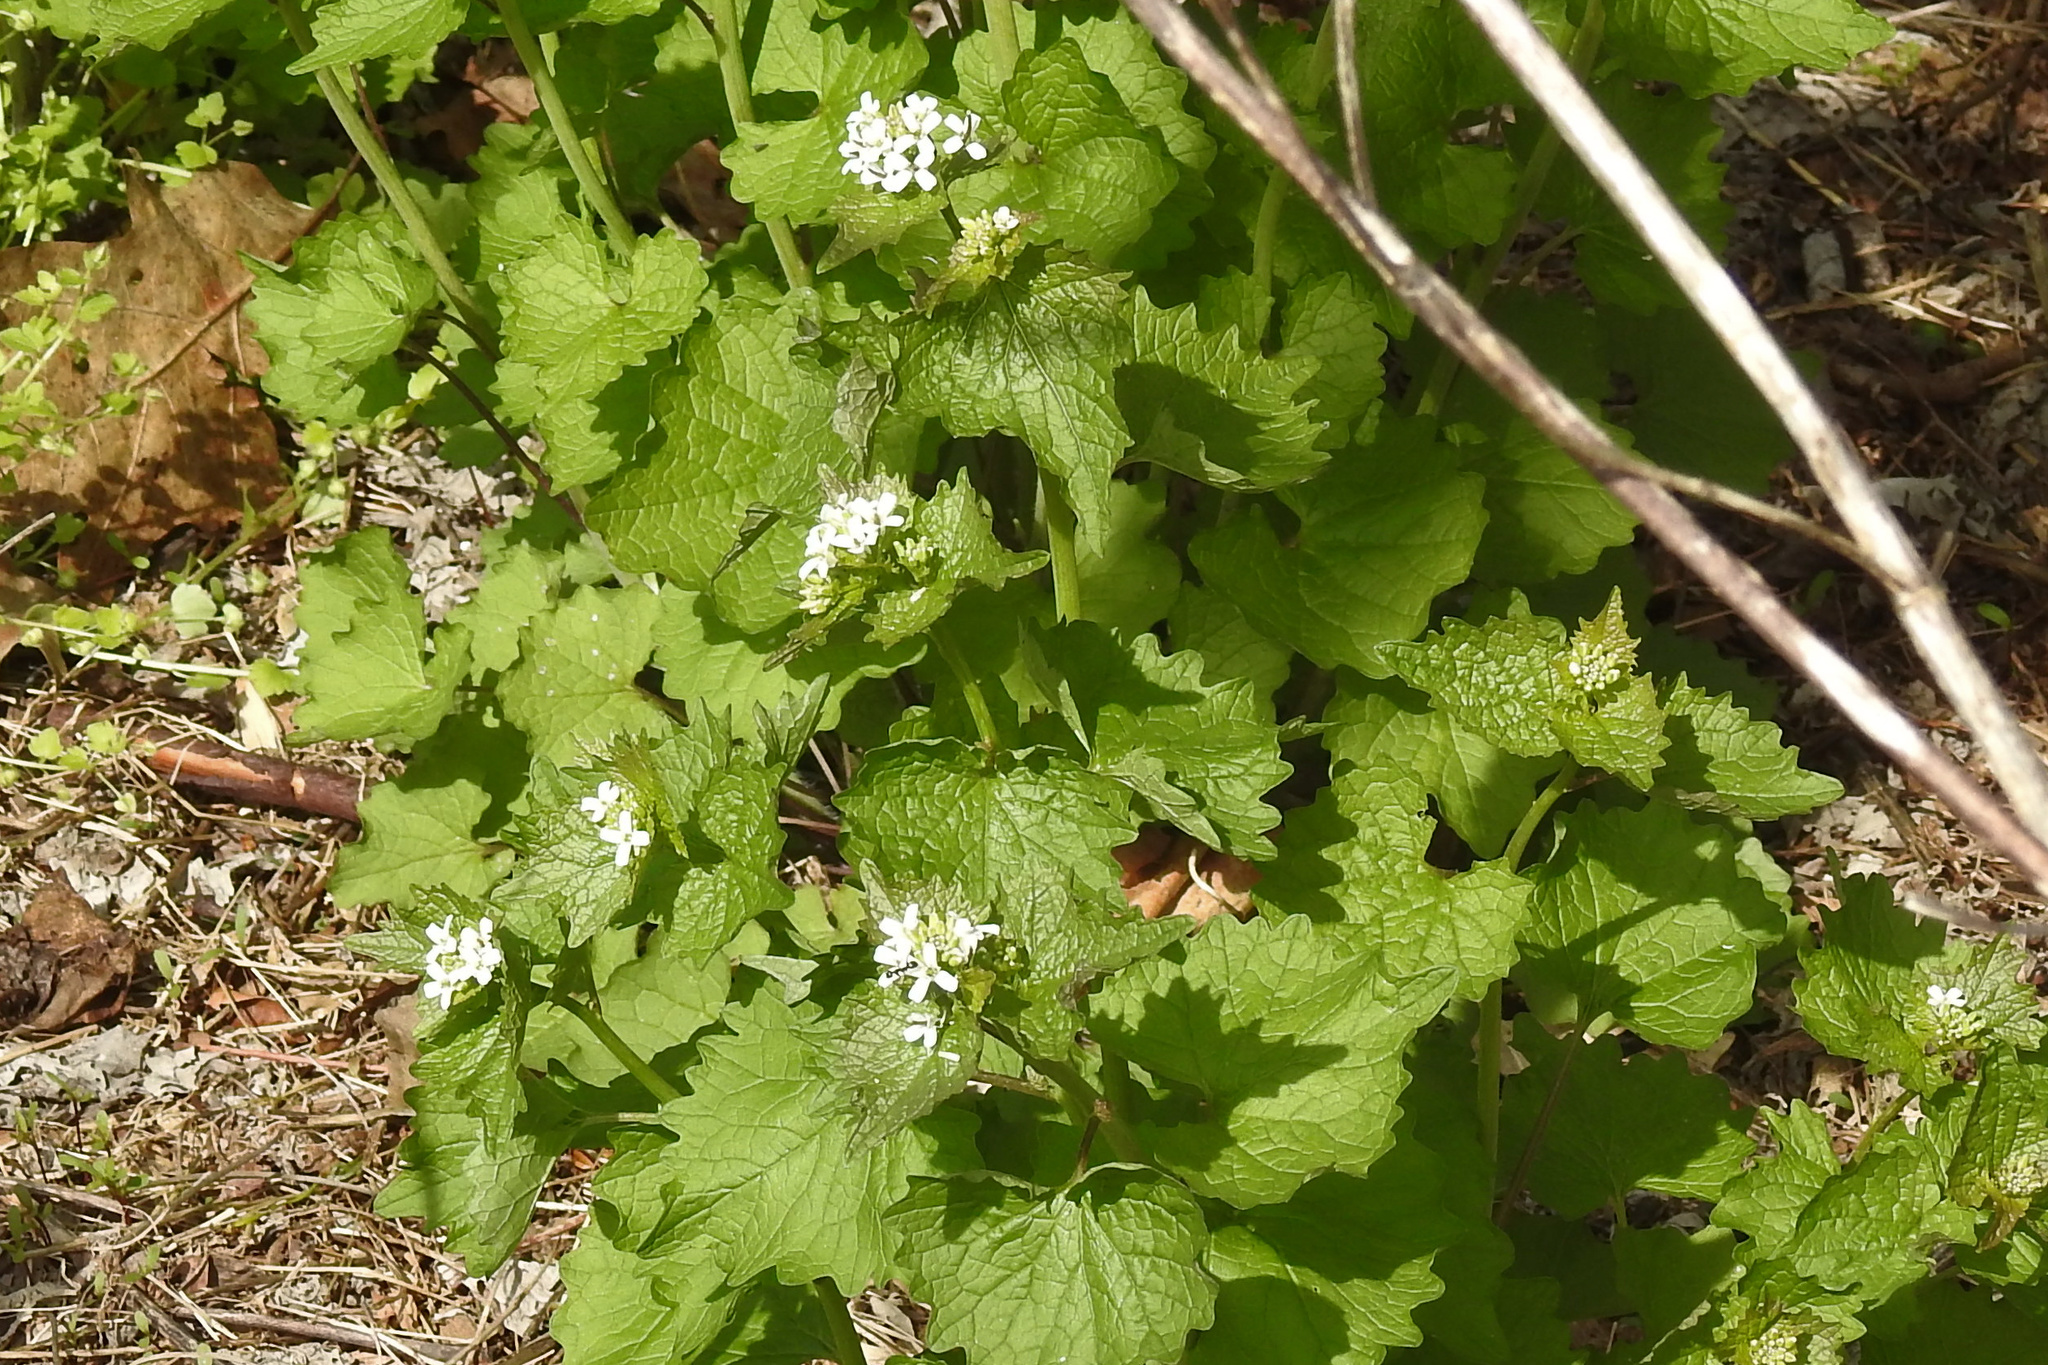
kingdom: Plantae
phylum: Tracheophyta
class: Magnoliopsida
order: Brassicales
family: Brassicaceae
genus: Alliaria
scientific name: Alliaria petiolata
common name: Garlic mustard
